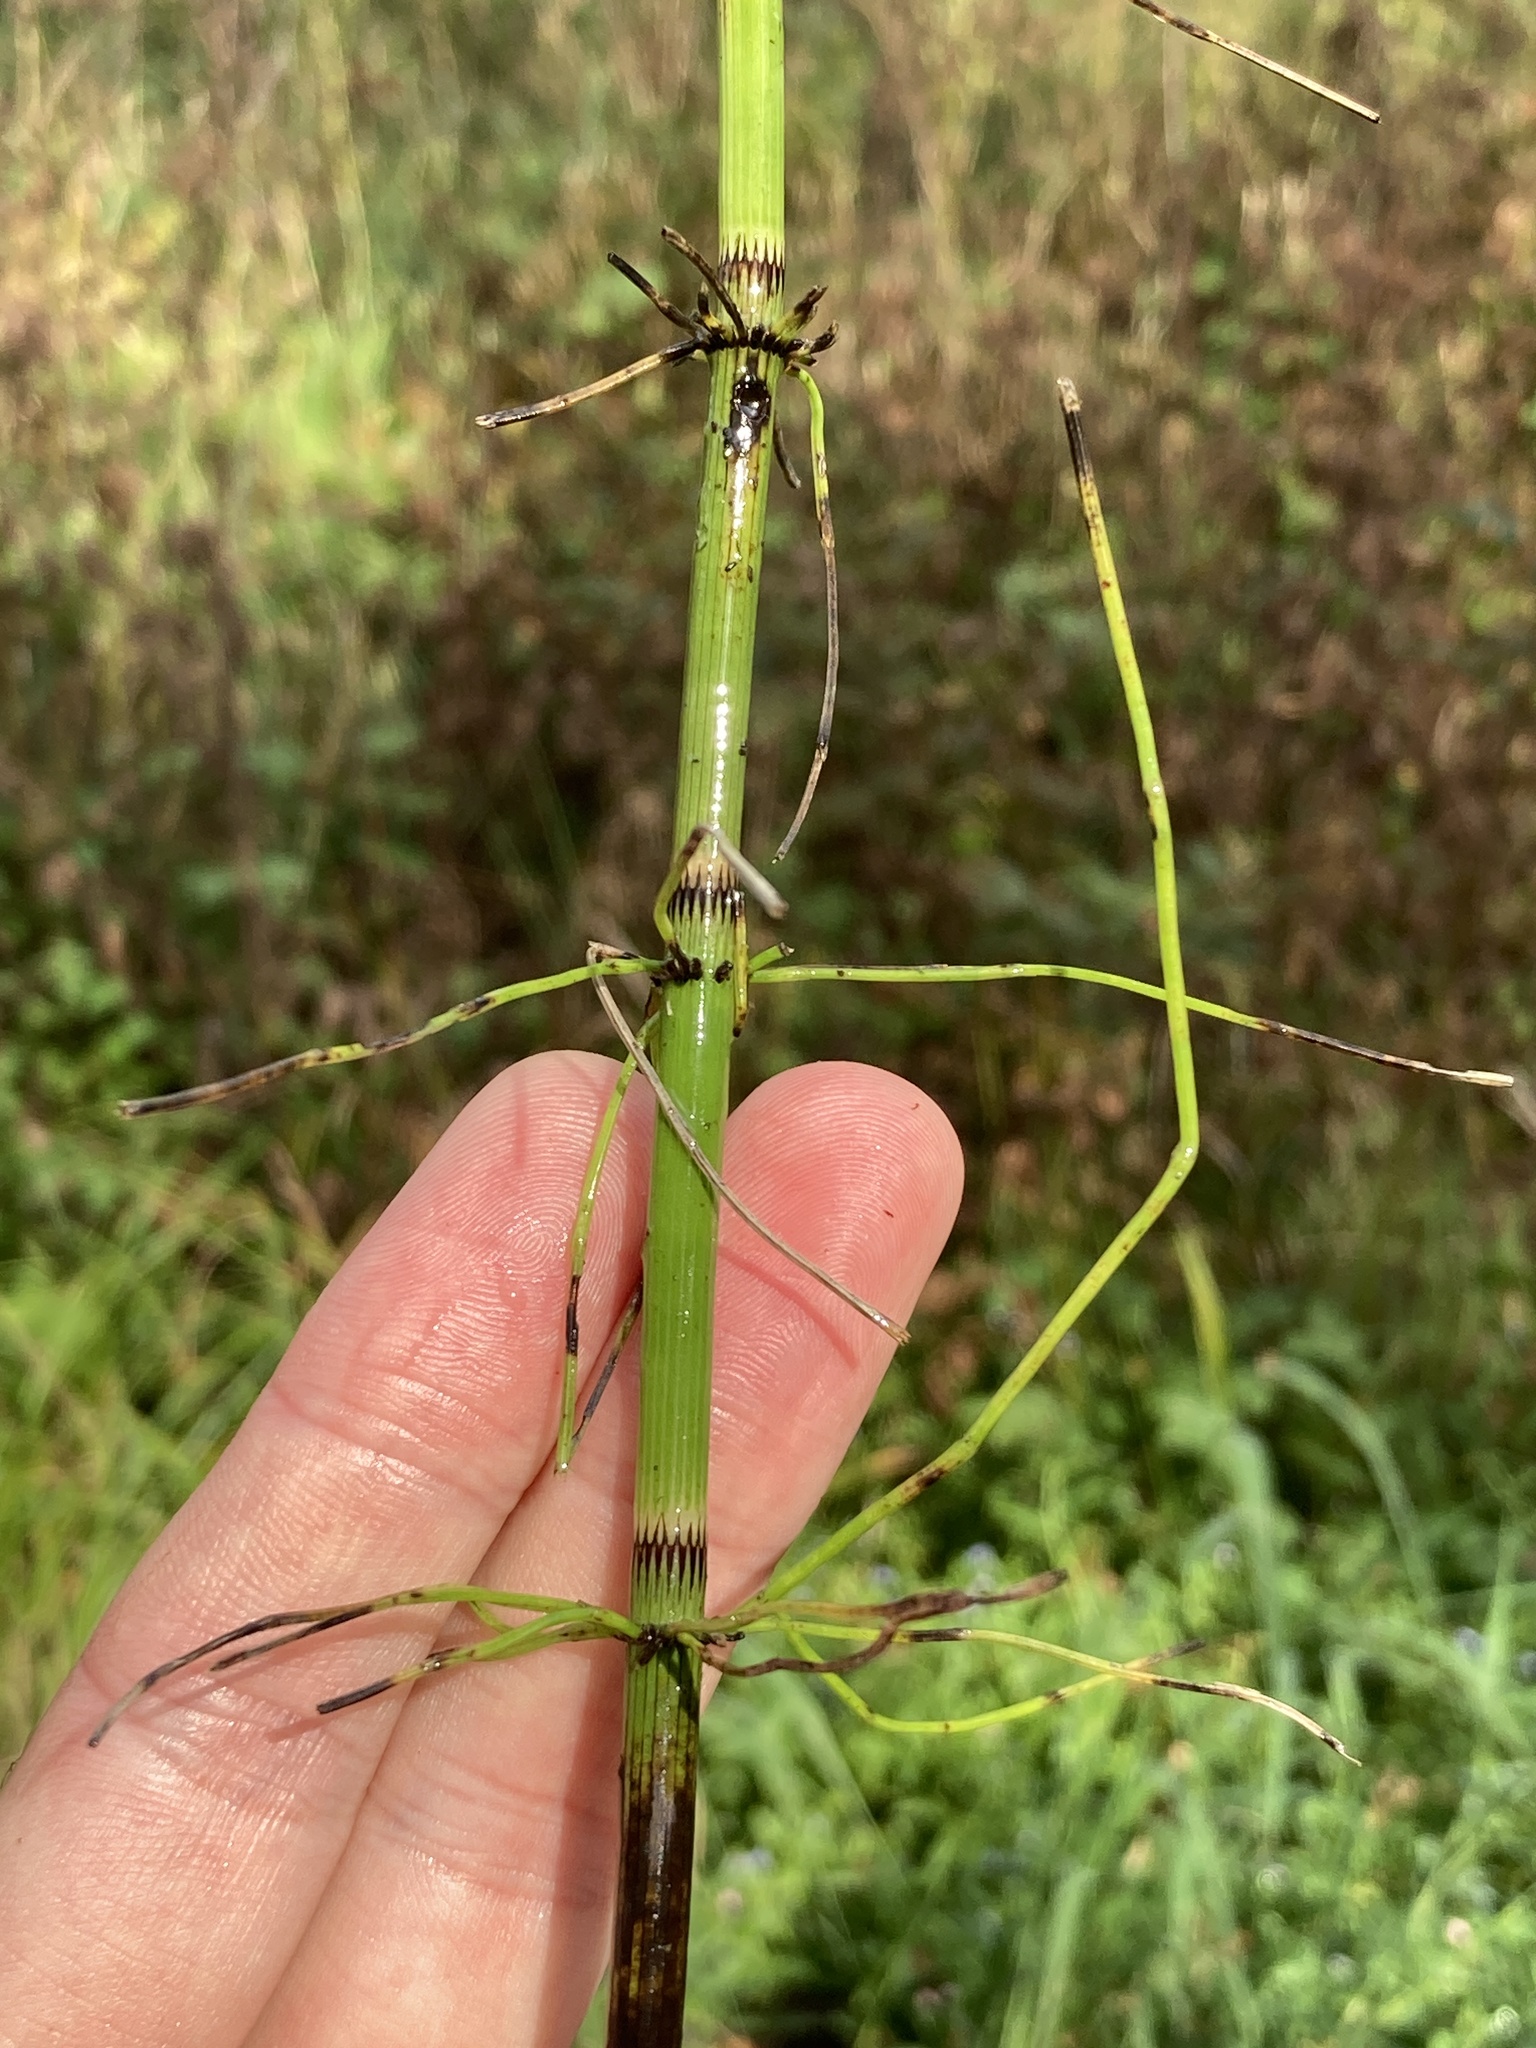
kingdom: Plantae
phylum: Tracheophyta
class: Polypodiopsida
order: Equisetales
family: Equisetaceae
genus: Equisetum
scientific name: Equisetum fluviatile
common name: Water horsetail
